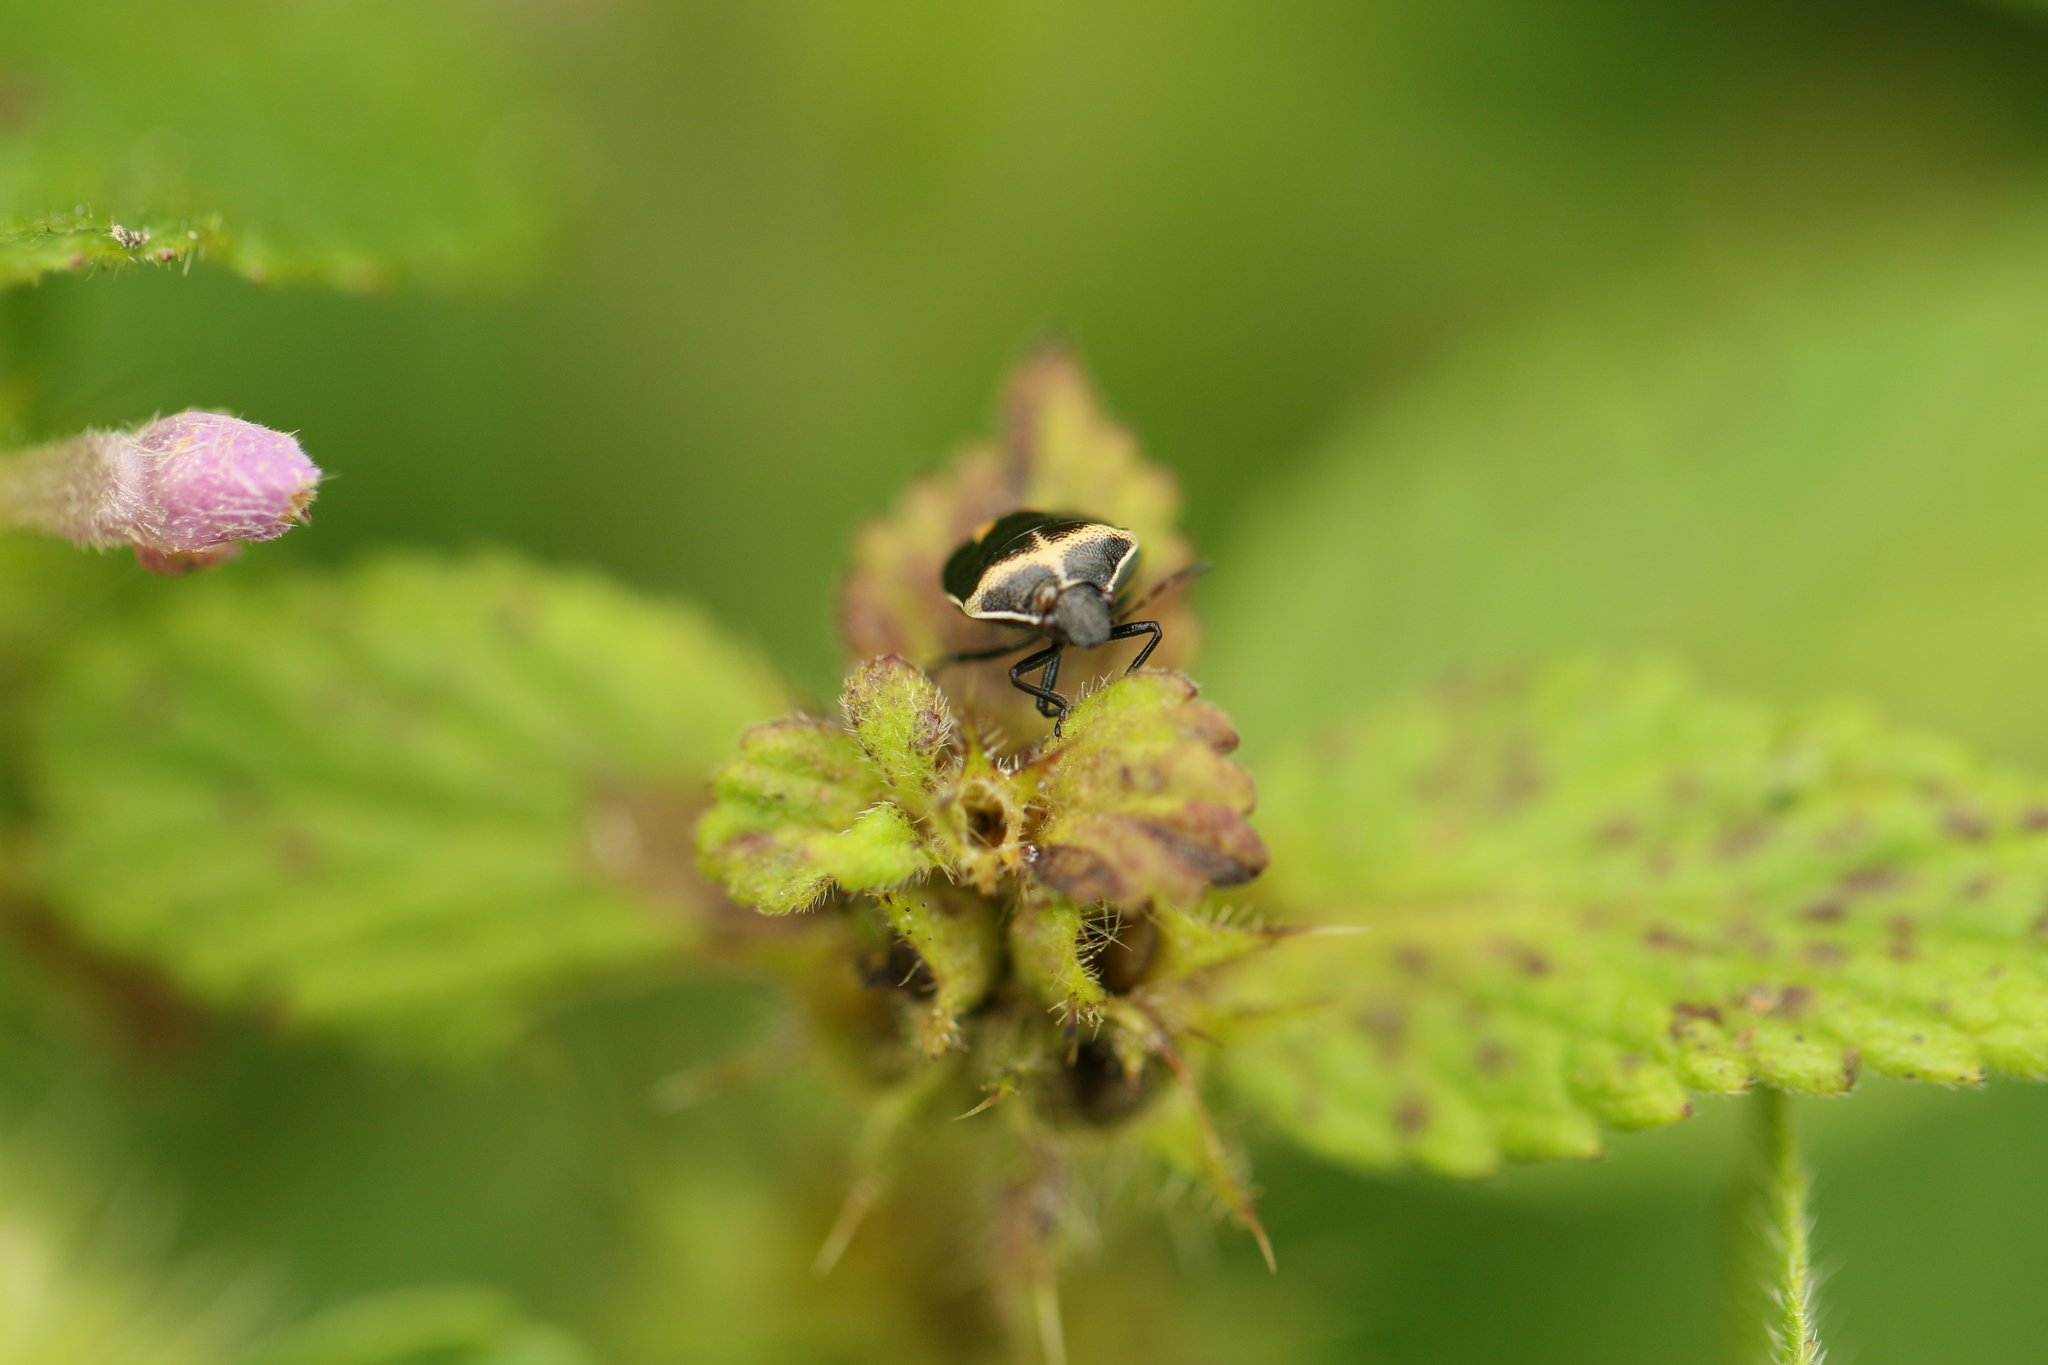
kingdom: Animalia
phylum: Arthropoda
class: Insecta
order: Hemiptera
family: Pentatomidae
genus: Cosmopepla
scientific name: Cosmopepla lintneriana
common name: Twice-stabbed stink bug
